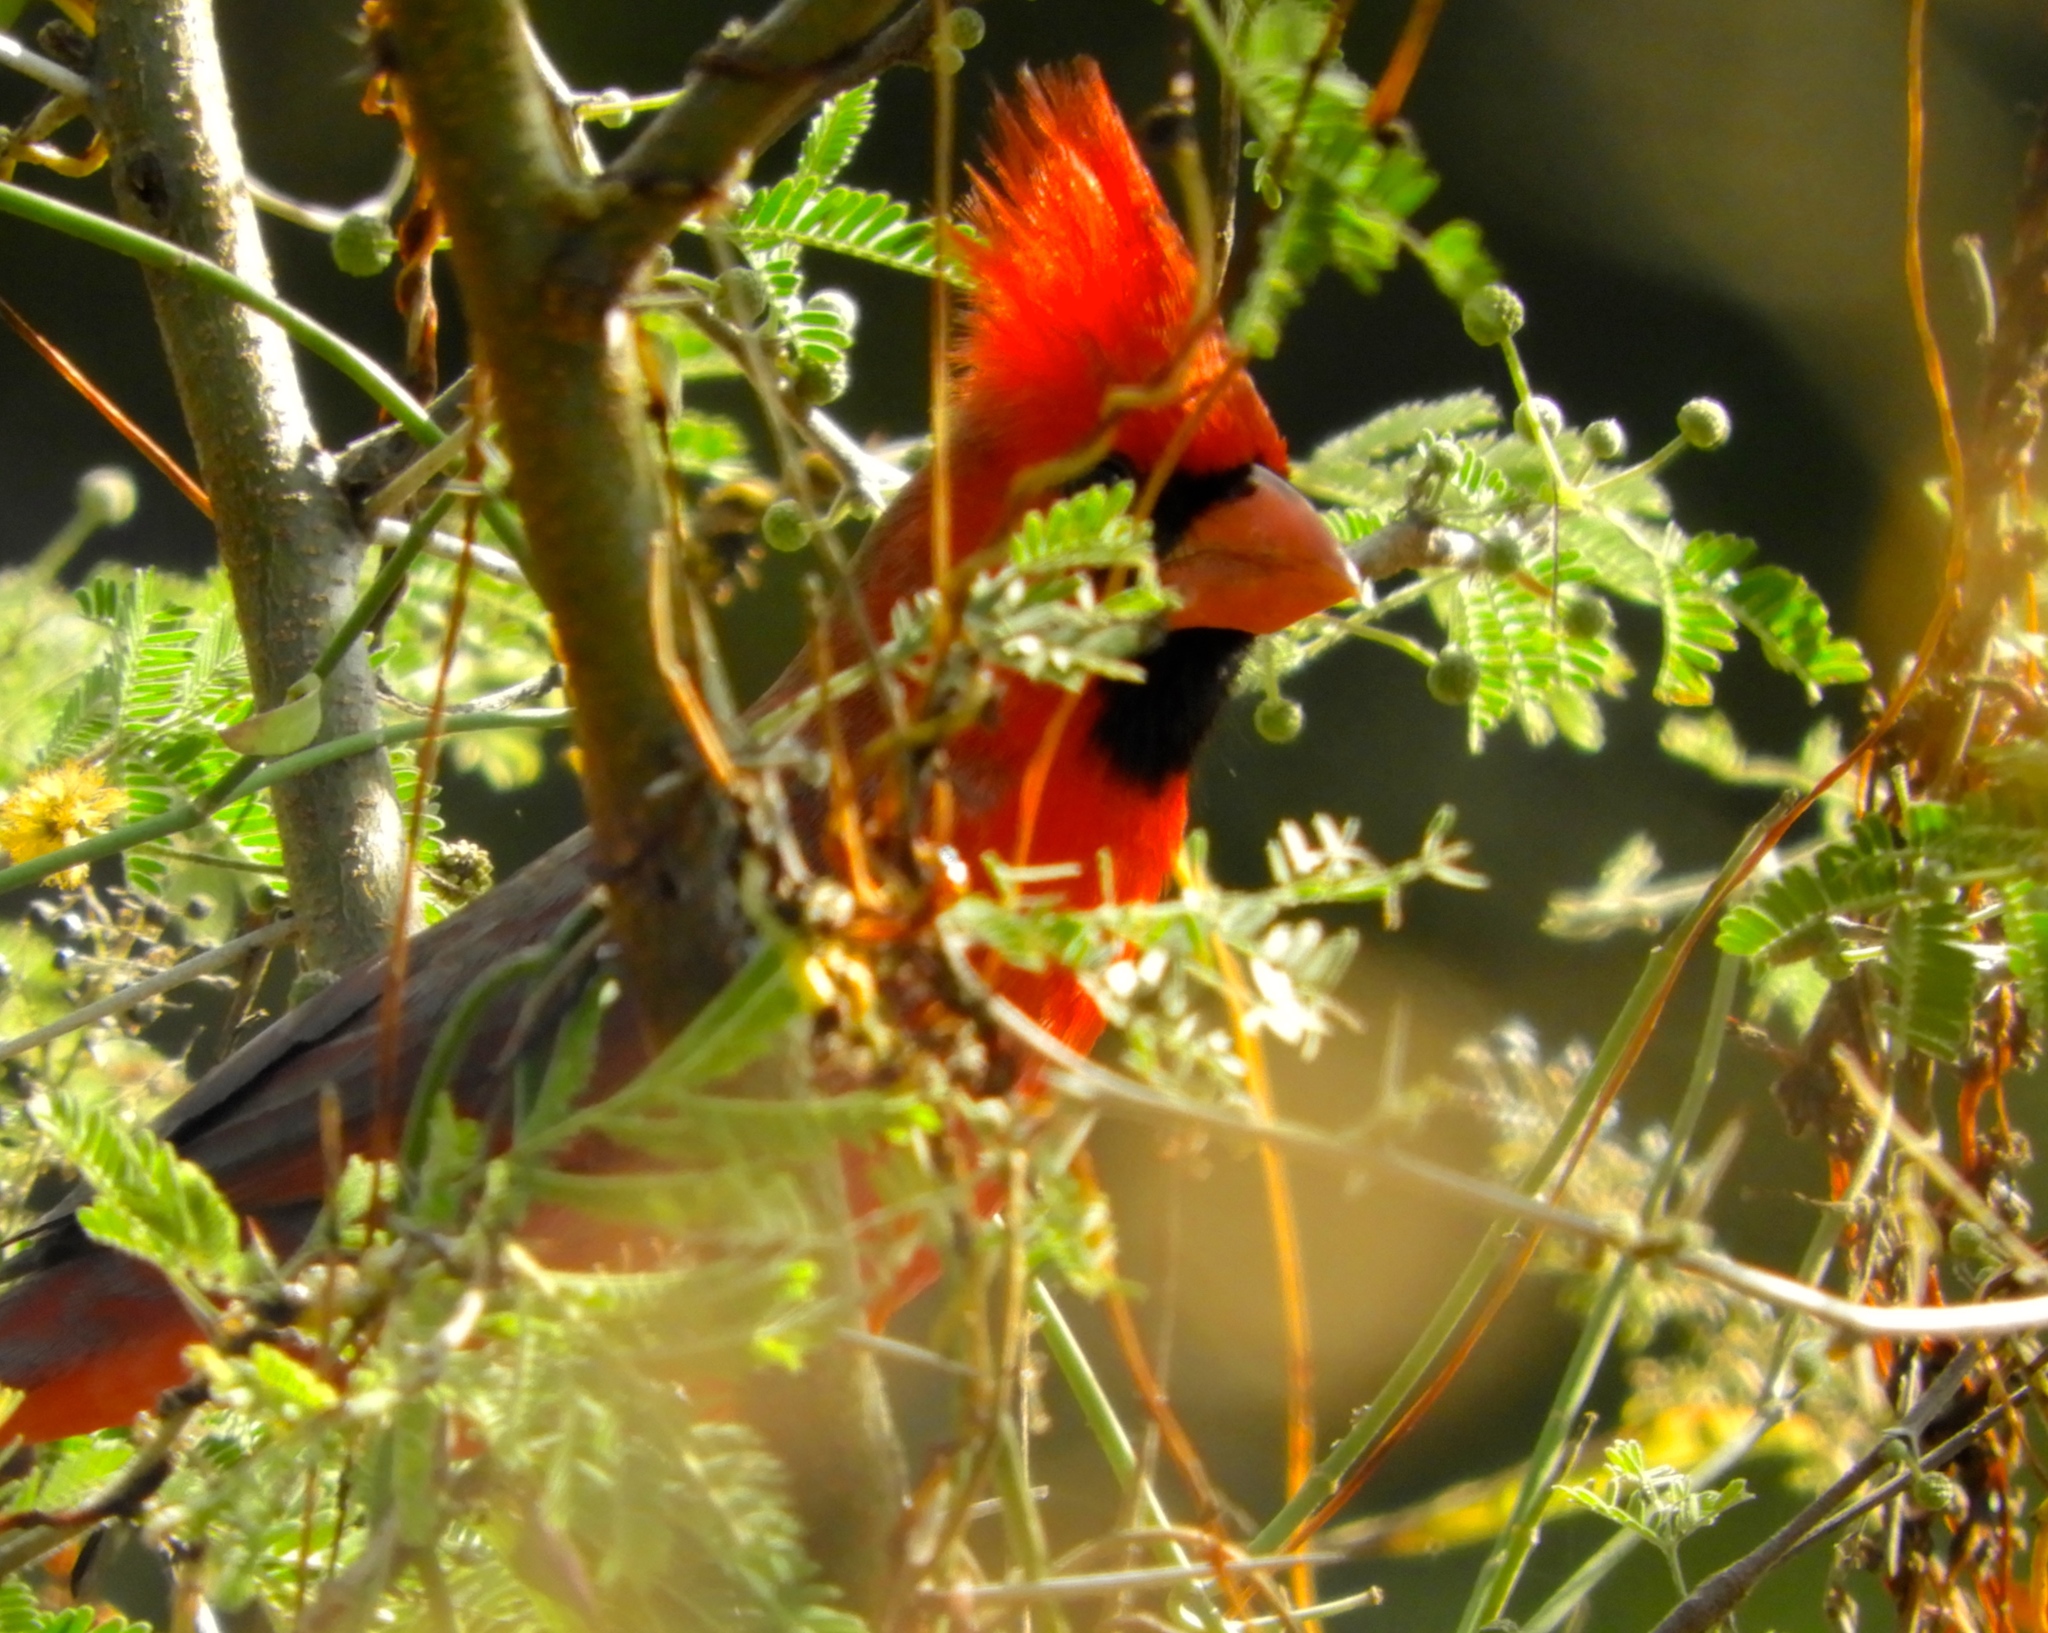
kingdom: Animalia
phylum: Chordata
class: Aves
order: Passeriformes
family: Cardinalidae
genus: Cardinalis
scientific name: Cardinalis cardinalis
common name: Northern cardinal
